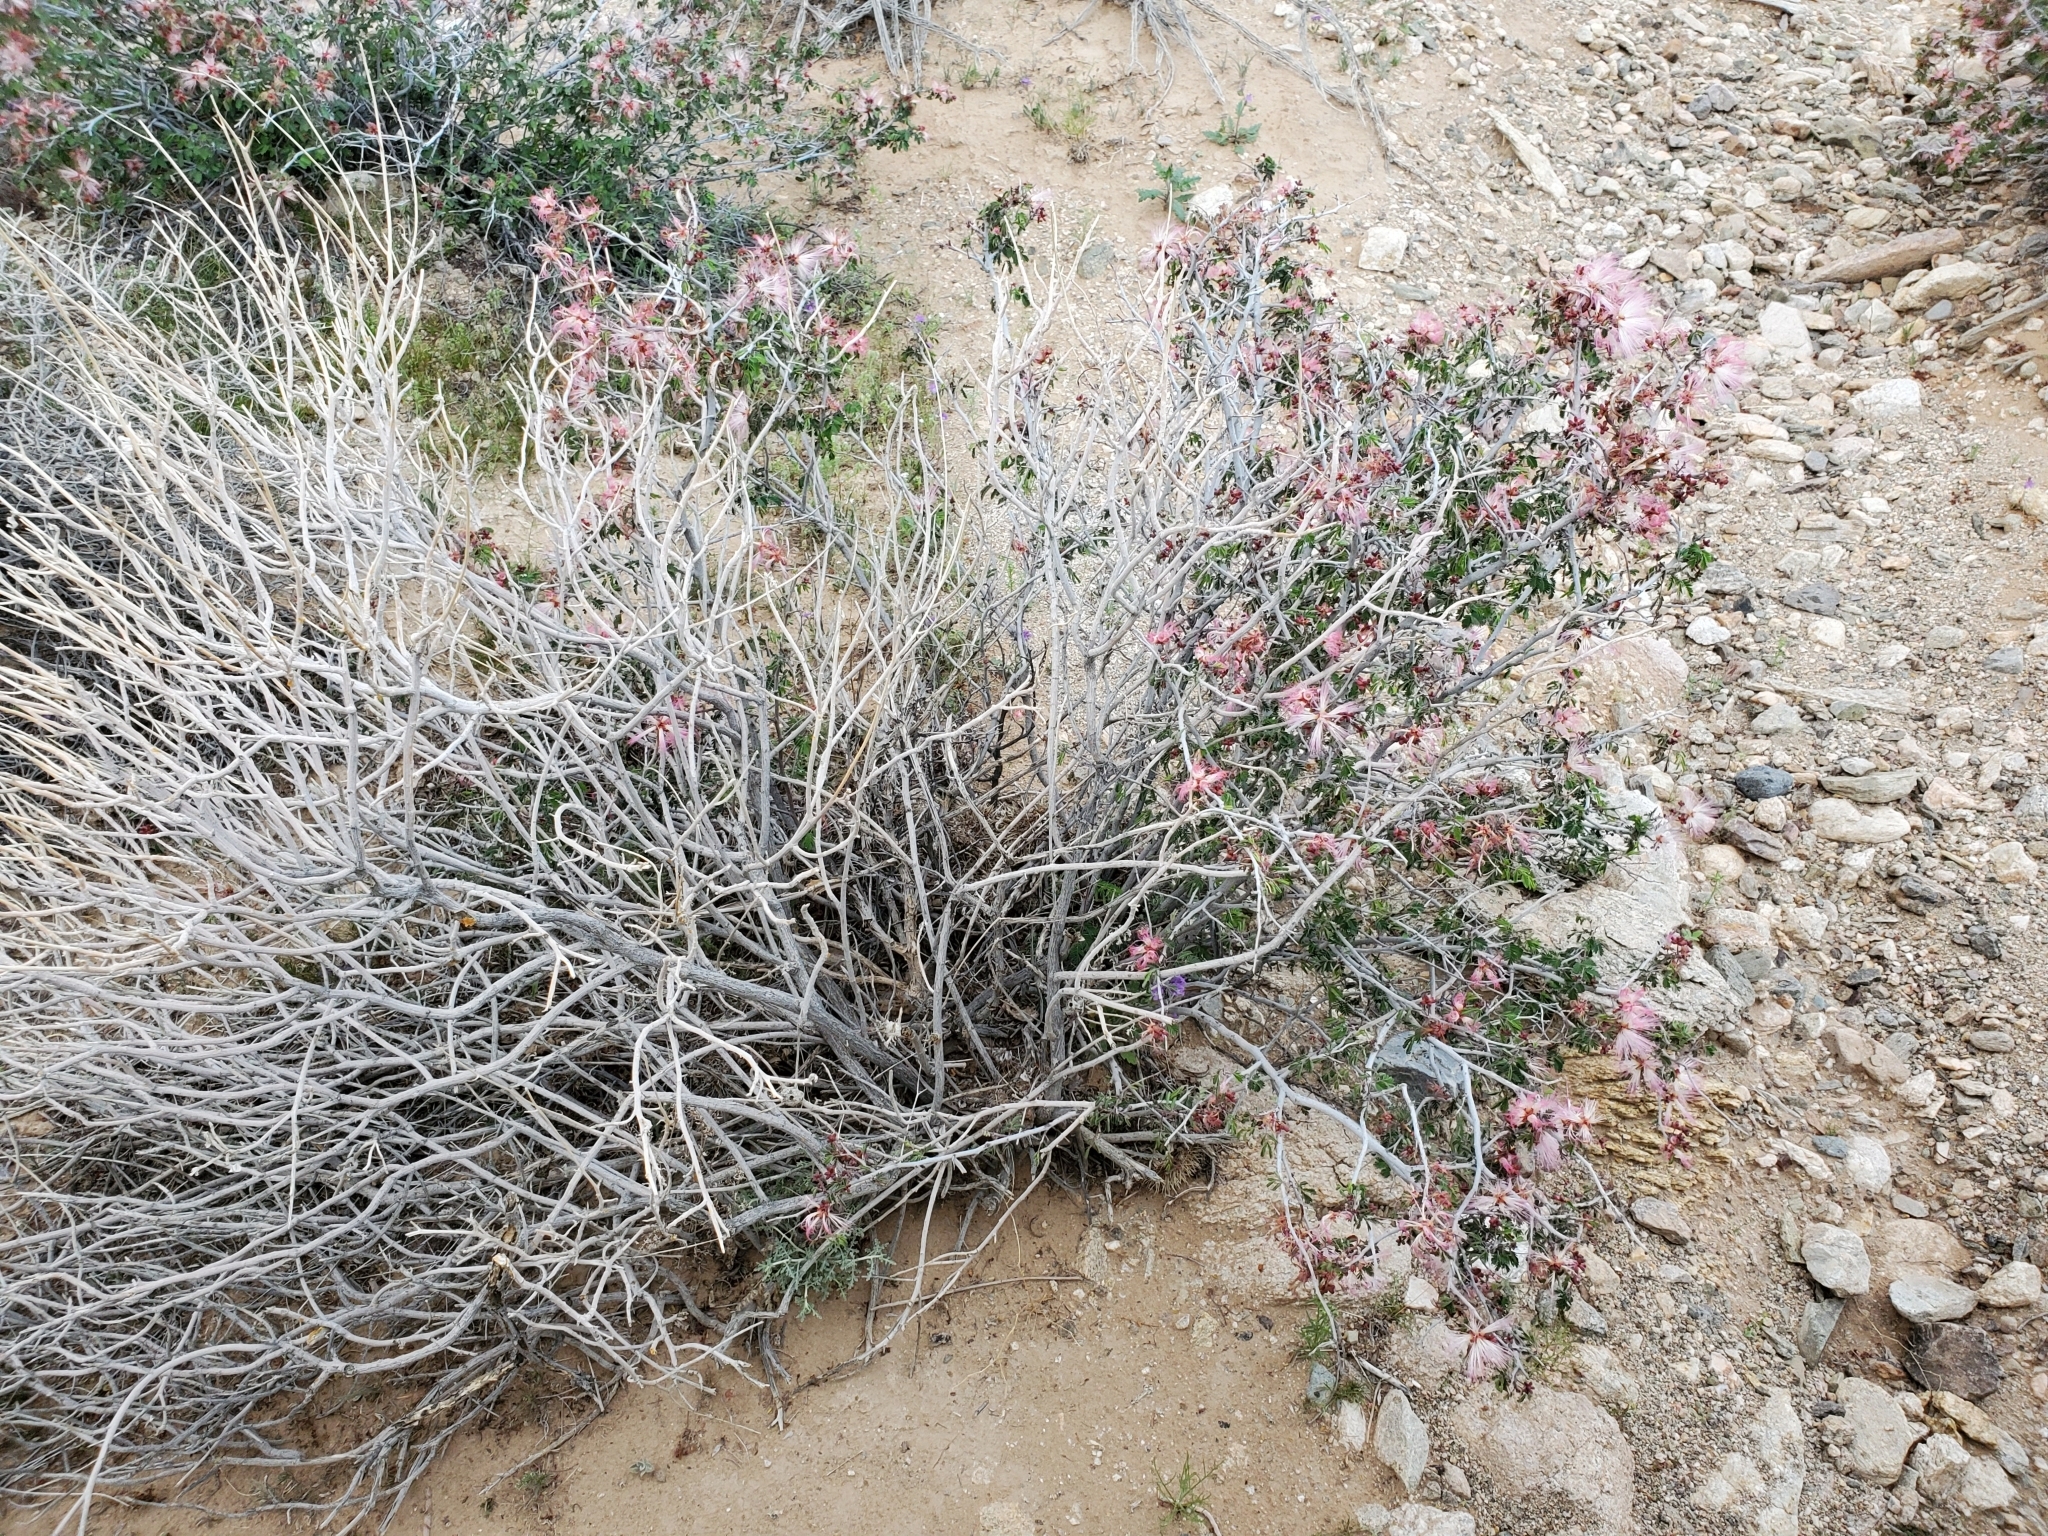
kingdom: Plantae
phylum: Tracheophyta
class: Magnoliopsida
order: Fabales
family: Fabaceae
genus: Calliandra
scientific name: Calliandra eriophylla
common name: Fairy-duster
